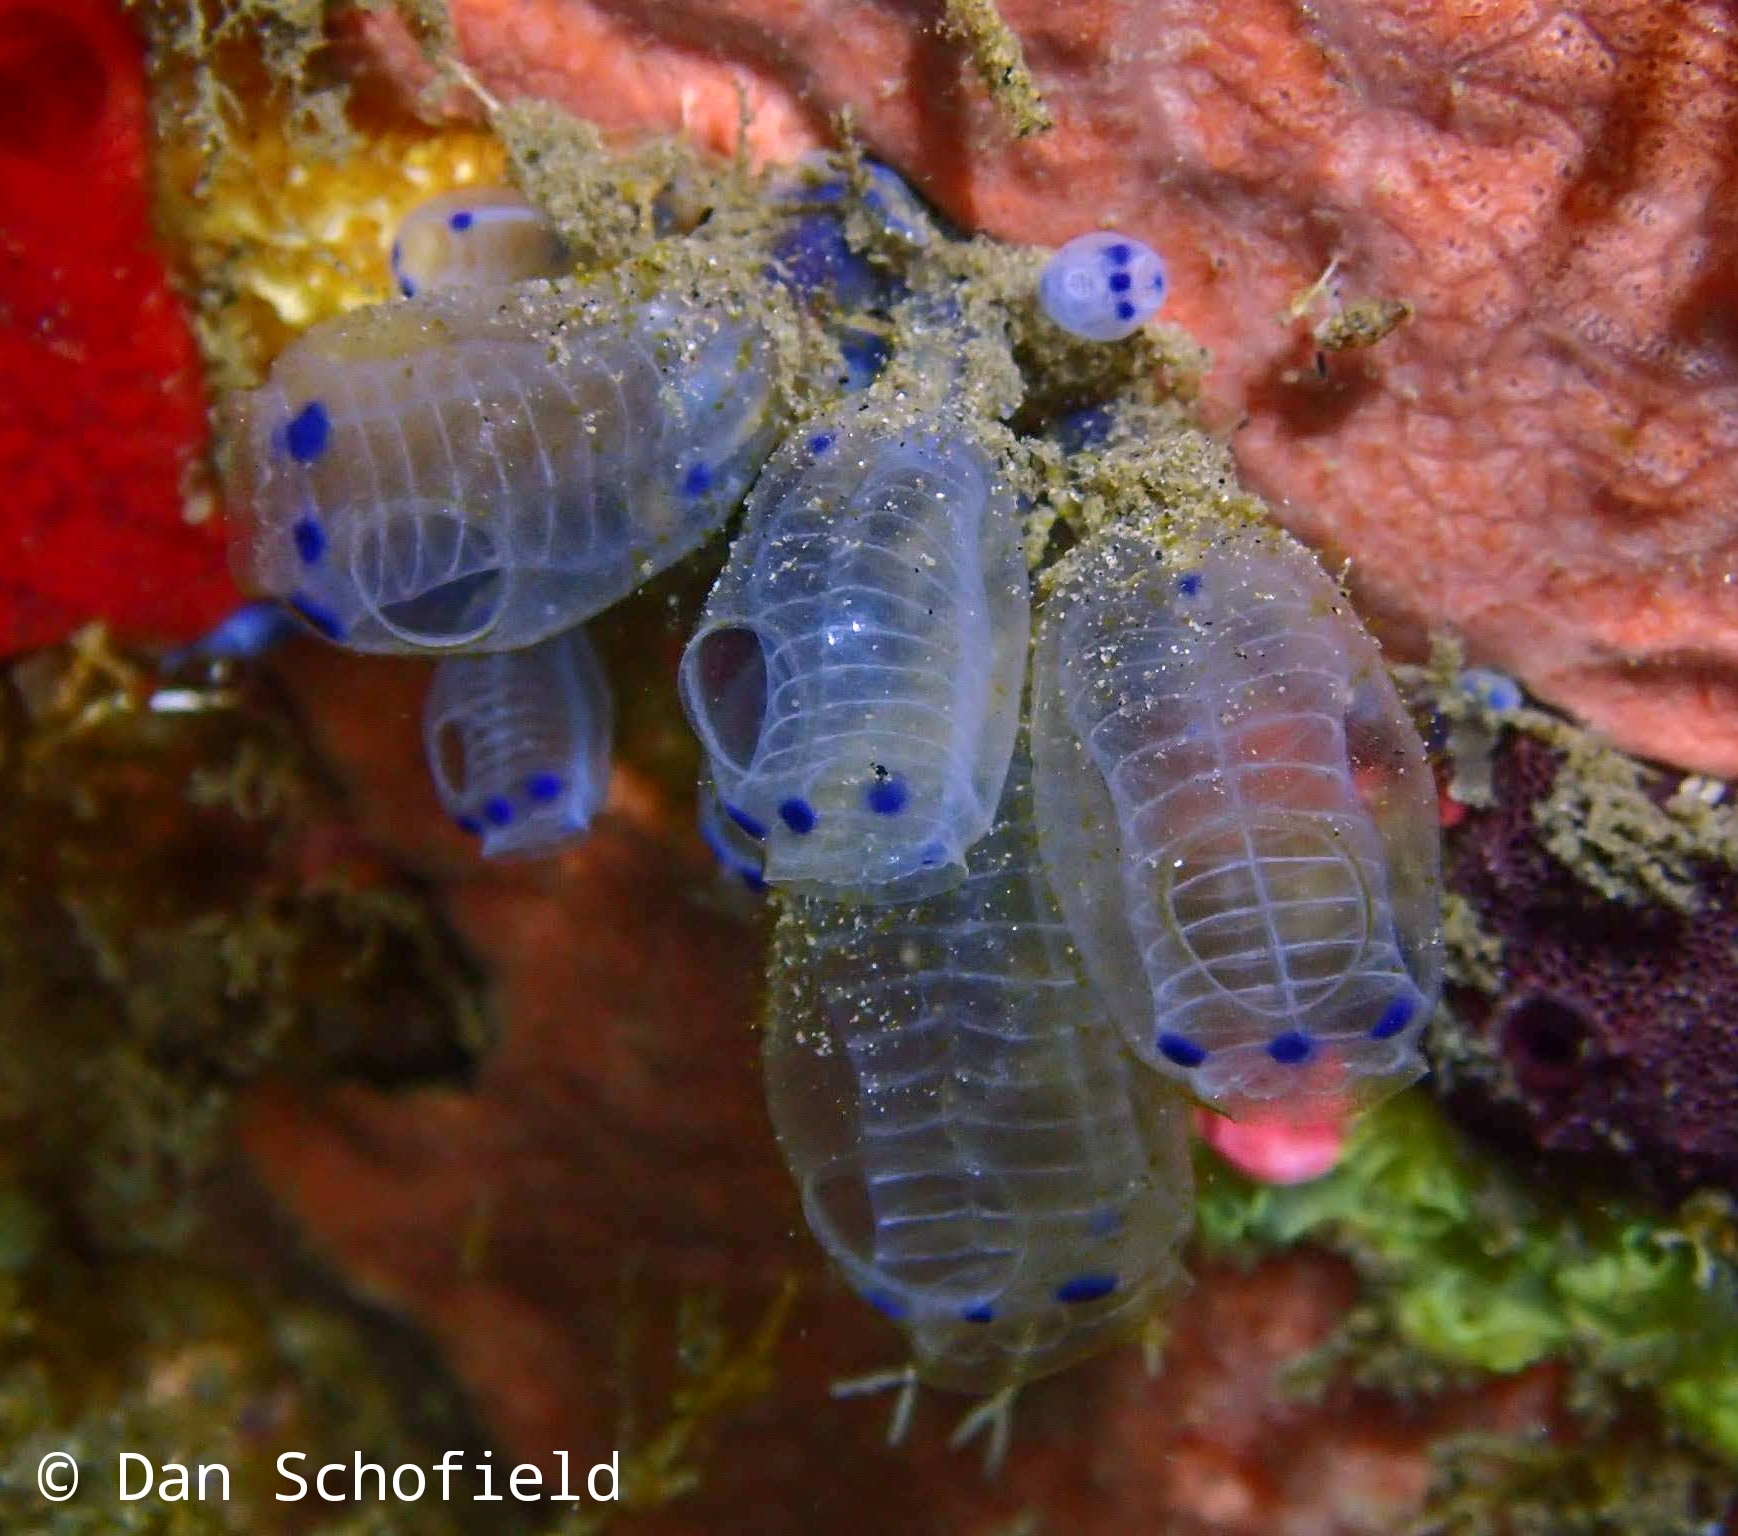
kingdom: Animalia
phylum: Chordata
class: Ascidiacea
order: Aplousobranchia
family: Clavelinidae
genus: Clavelina
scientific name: Clavelina moluccensis
